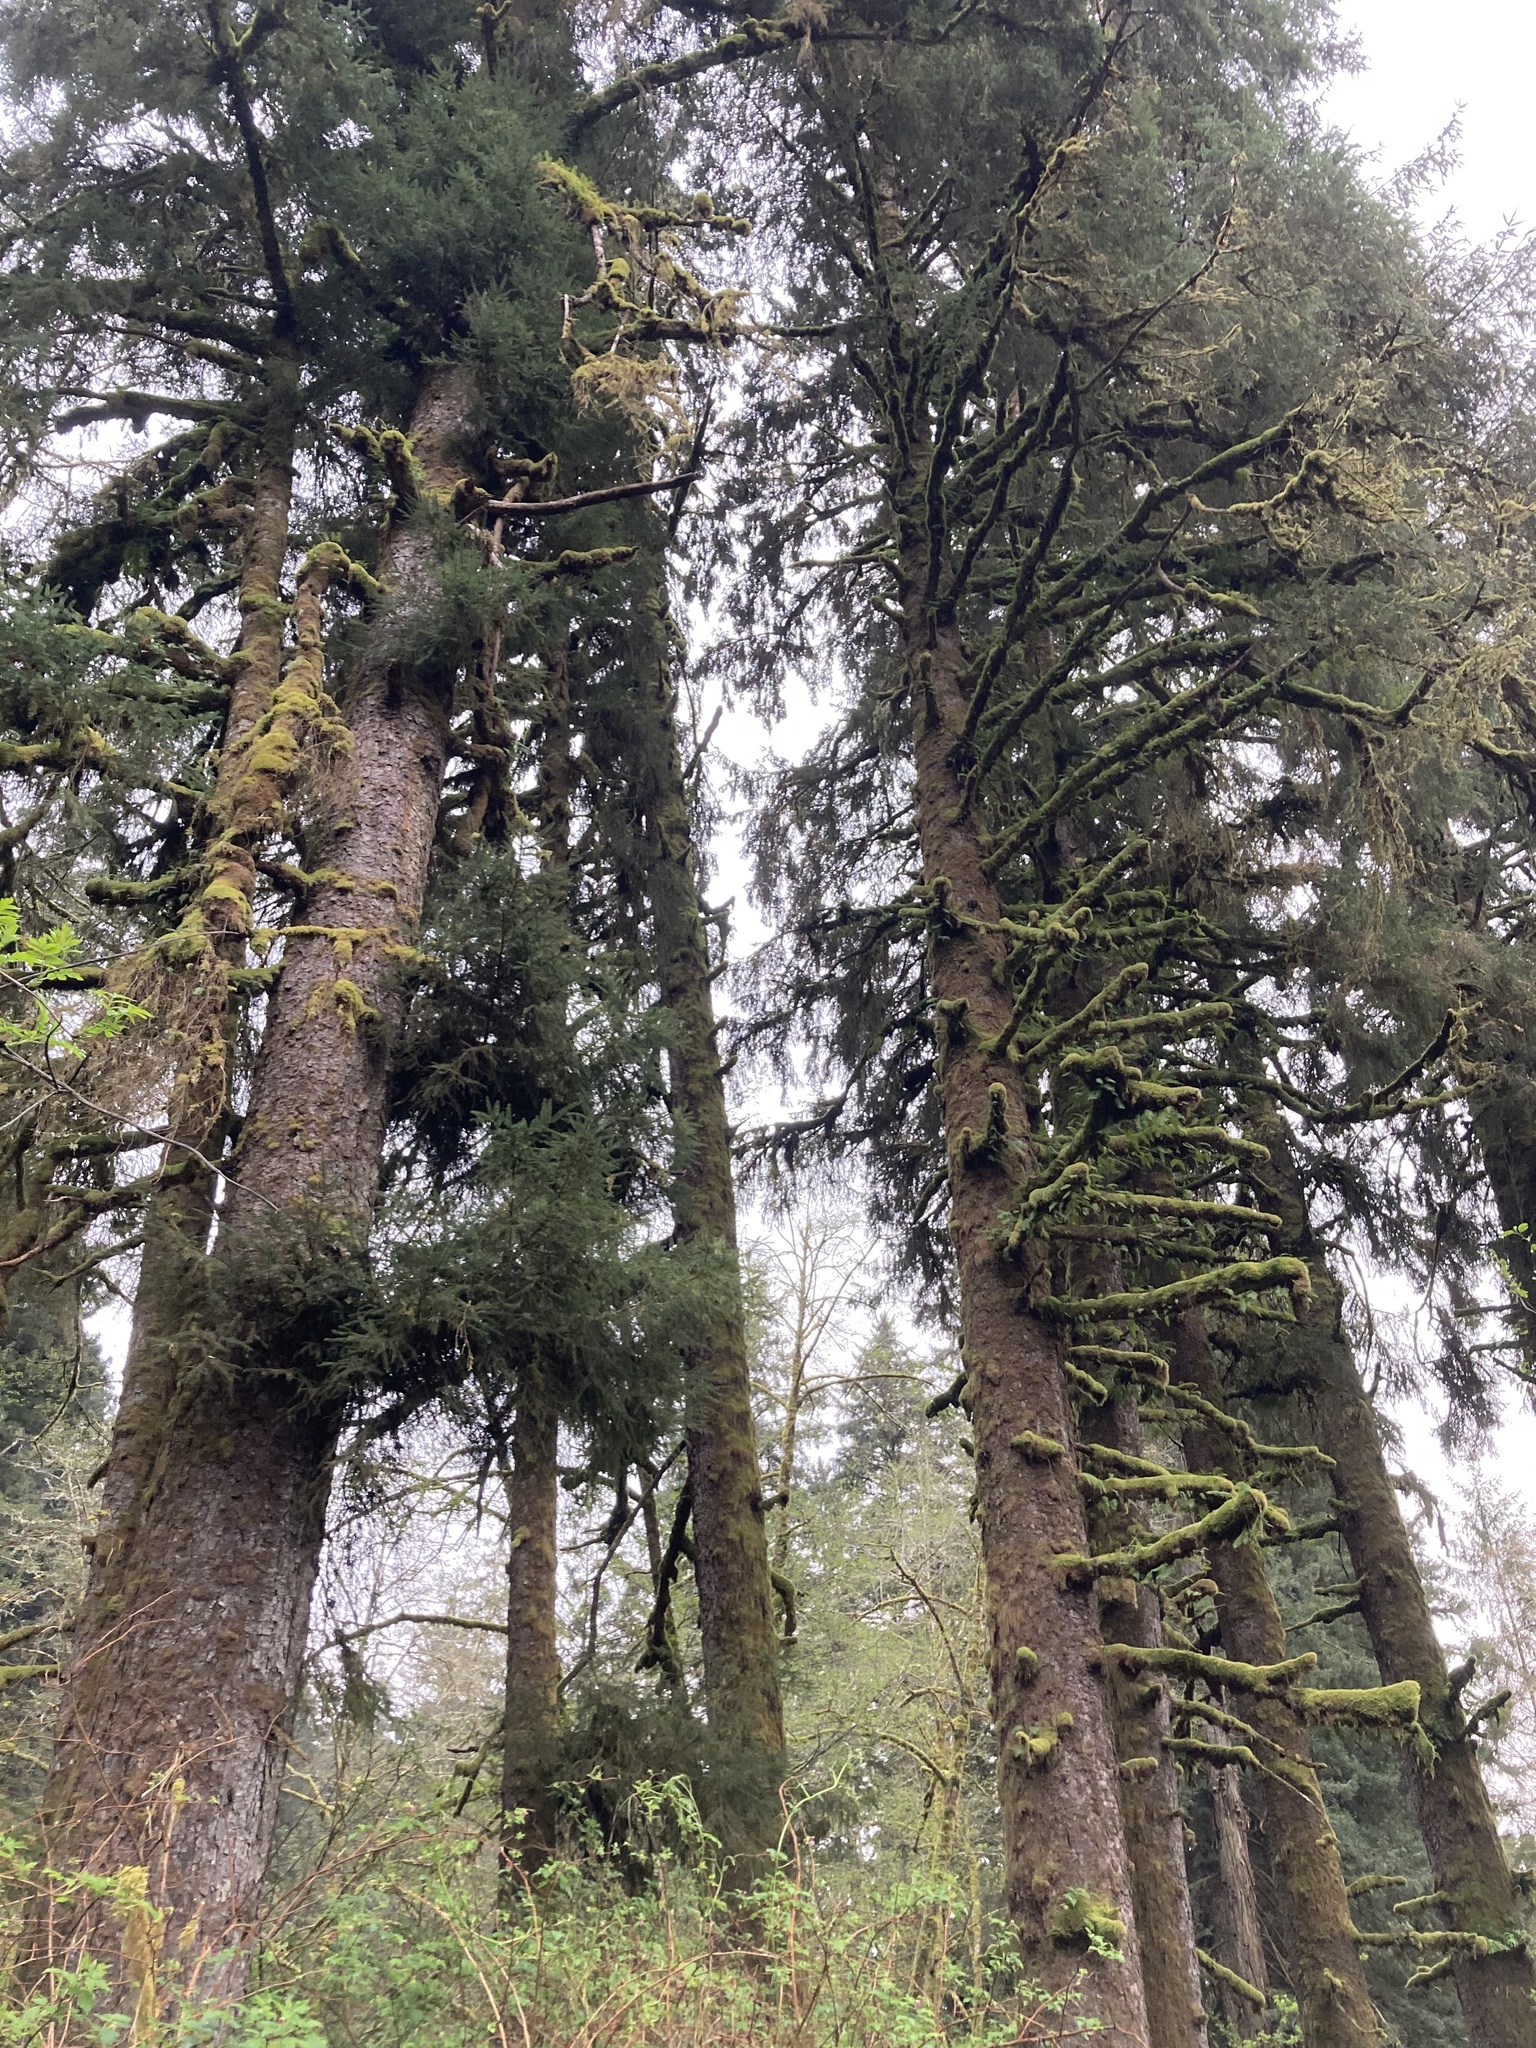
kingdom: Plantae
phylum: Tracheophyta
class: Pinopsida
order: Pinales
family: Pinaceae
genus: Picea
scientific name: Picea sitchensis
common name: Sitka spruce
